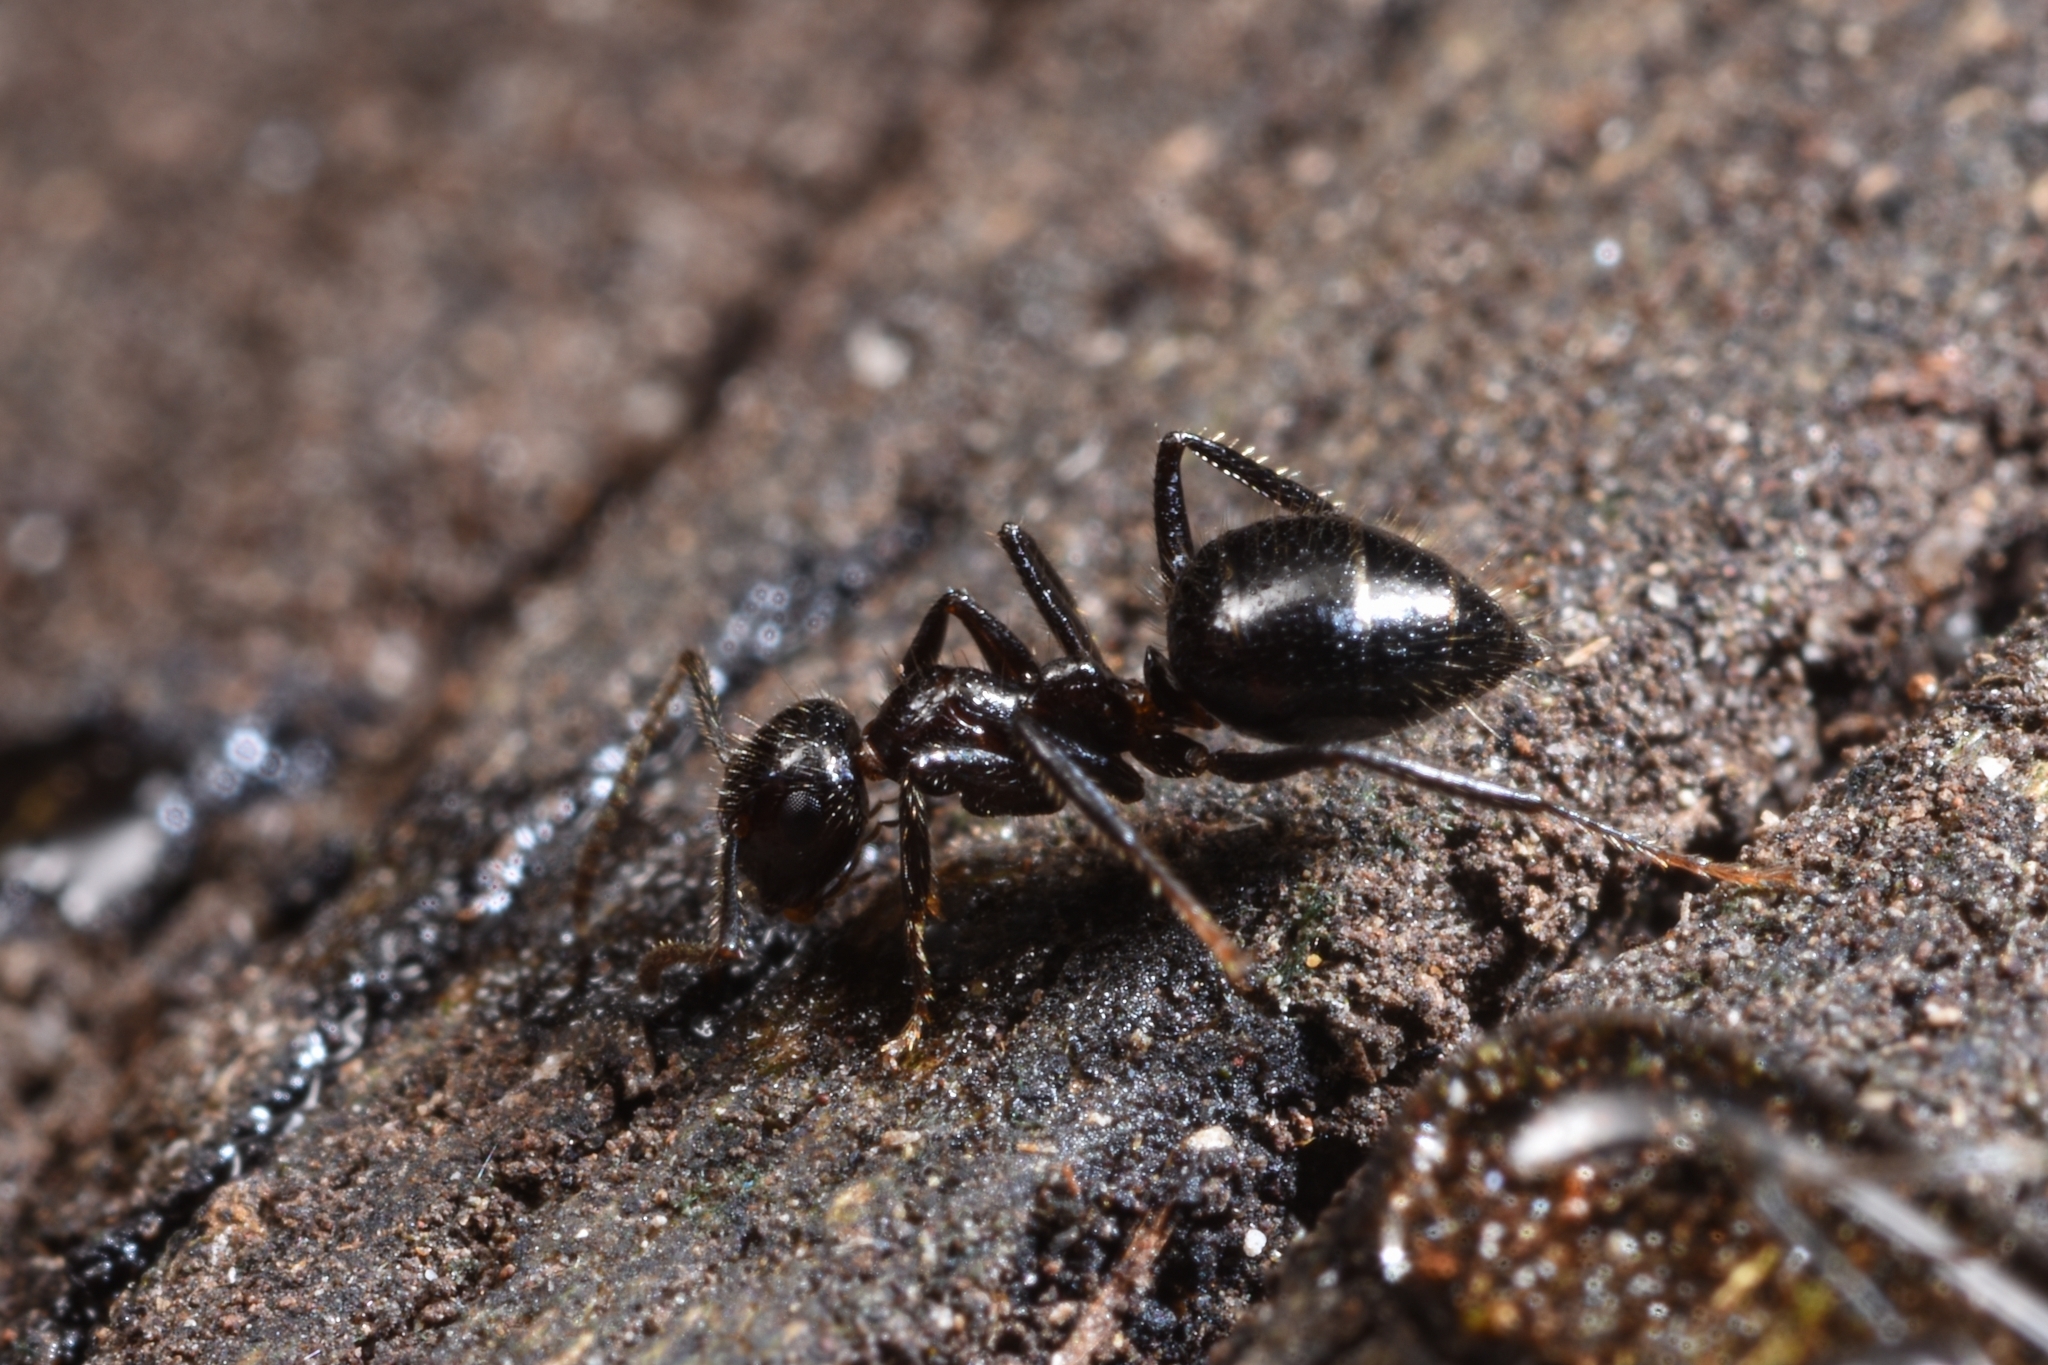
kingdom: Animalia
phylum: Arthropoda
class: Insecta
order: Hymenoptera
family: Formicidae
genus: Camponotus
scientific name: Camponotus vitreus
